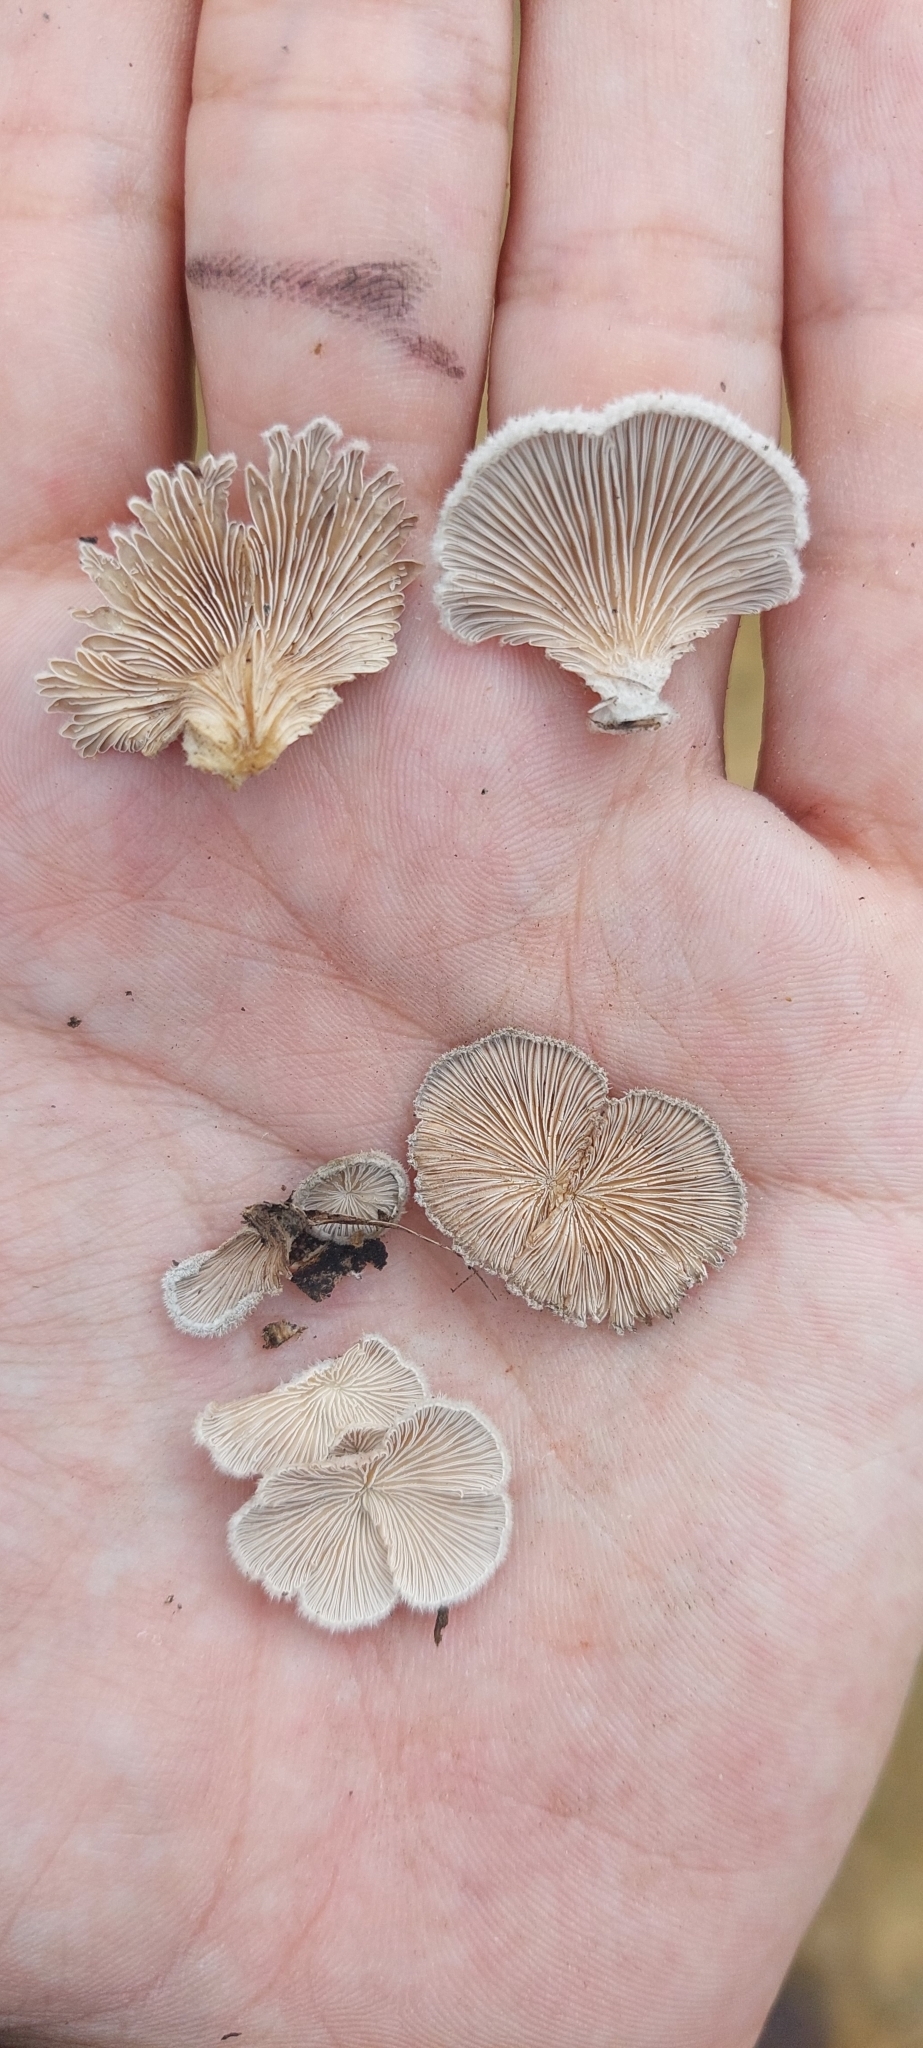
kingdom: Fungi
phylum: Basidiomycota
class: Agaricomycetes
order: Agaricales
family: Schizophyllaceae
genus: Schizophyllum
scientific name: Schizophyllum commune
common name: Common porecrust
